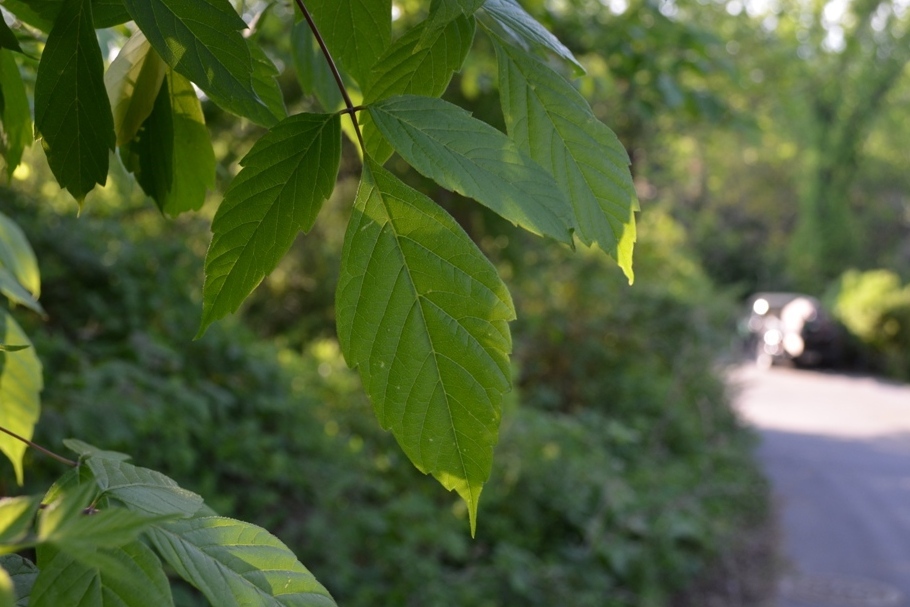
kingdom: Plantae
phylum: Tracheophyta
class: Magnoliopsida
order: Sapindales
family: Sapindaceae
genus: Acer
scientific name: Acer negundo
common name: Ashleaf maple
